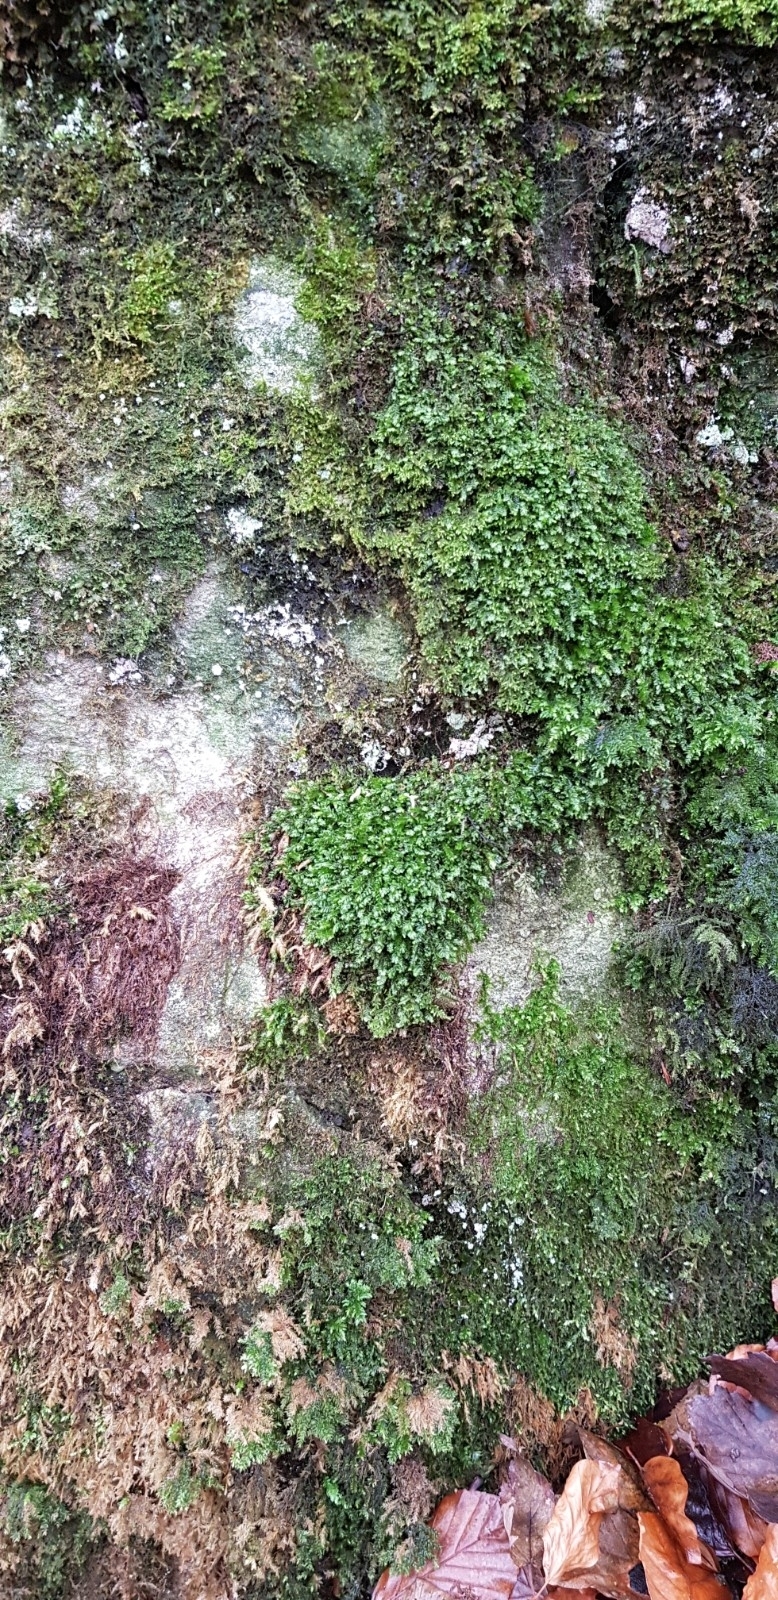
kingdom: Plantae
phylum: Marchantiophyta
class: Jungermanniopsida
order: Jungermanniales
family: Plagiochilaceae
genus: Plagiochila
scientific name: Plagiochila porelloides
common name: Lesser featherwort
